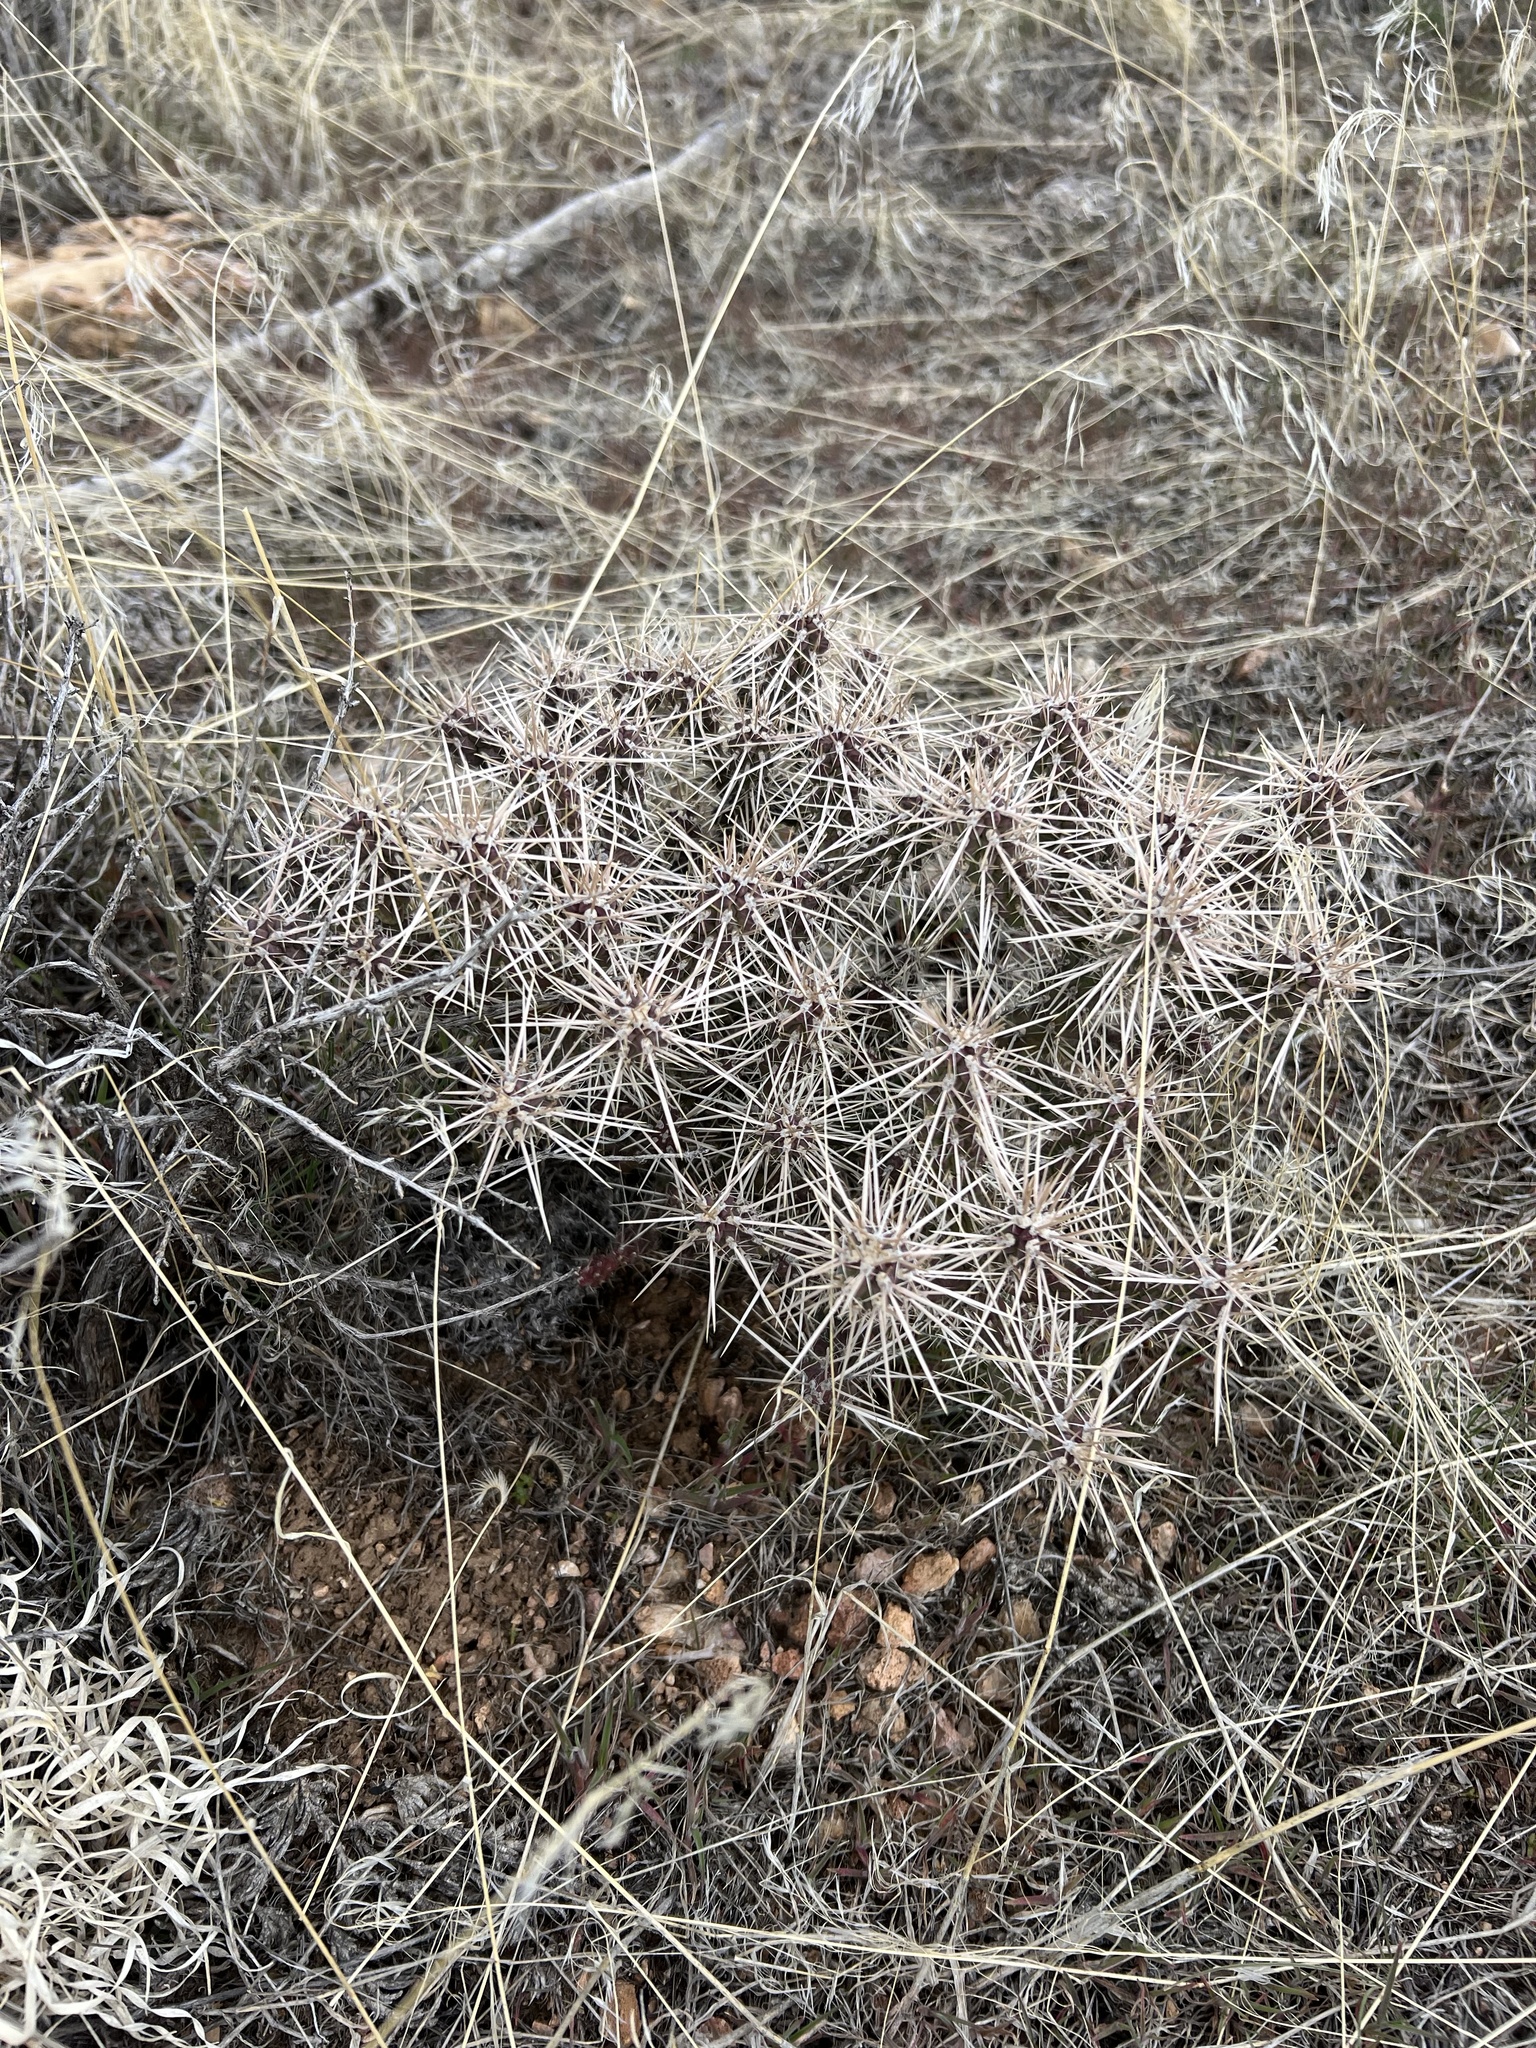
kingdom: Plantae
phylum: Tracheophyta
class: Magnoliopsida
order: Caryophyllales
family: Cactaceae
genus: Cylindropuntia
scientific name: Cylindropuntia whipplei
